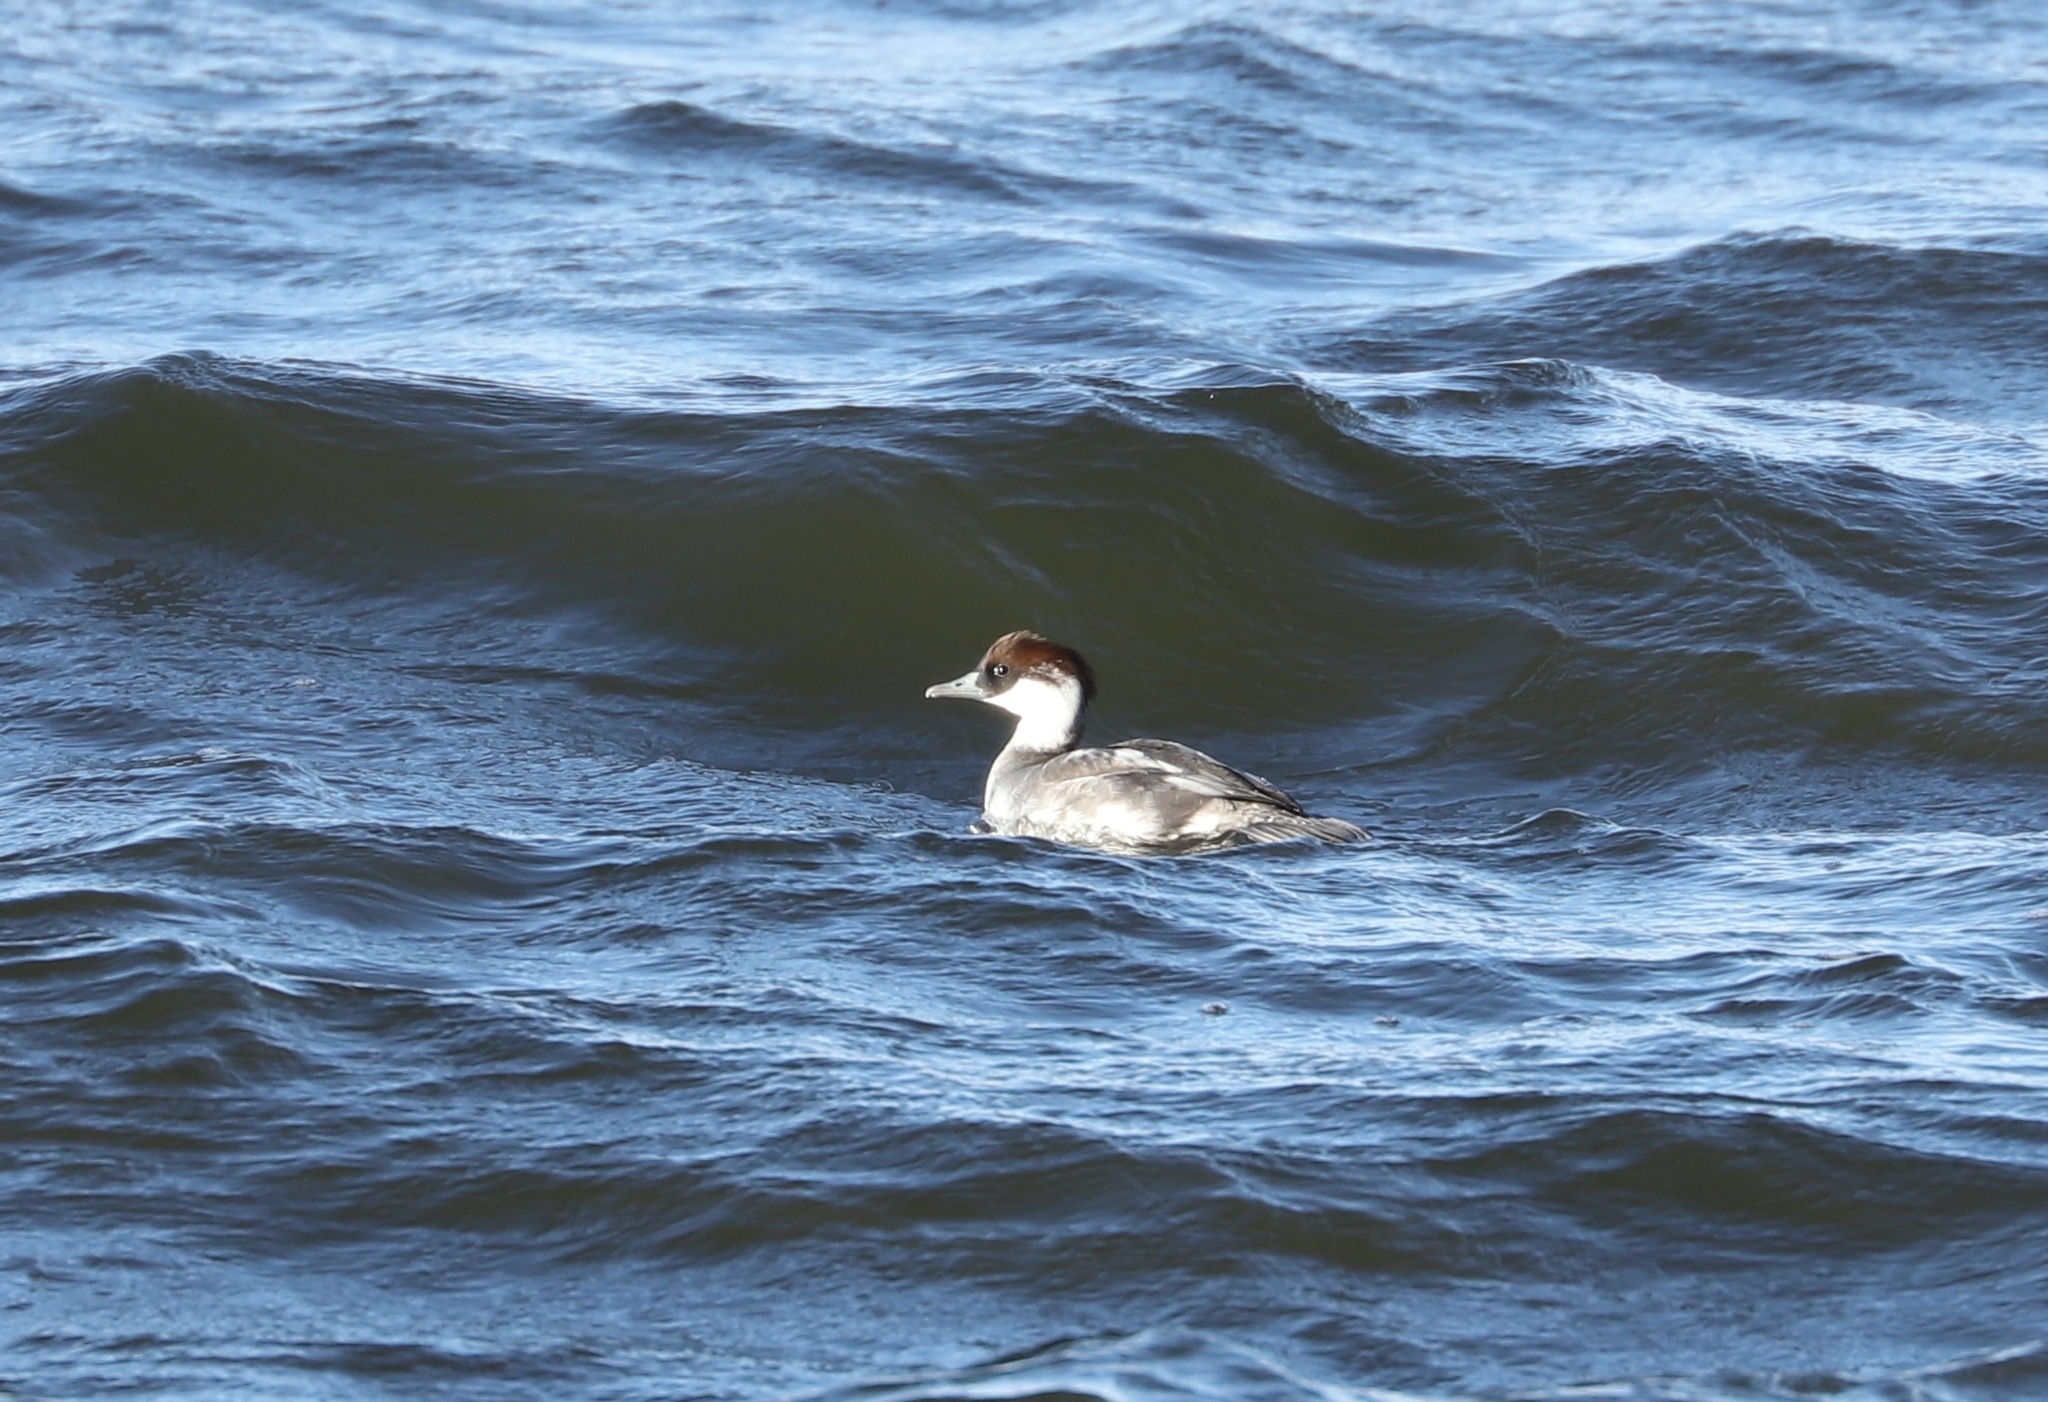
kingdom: Animalia
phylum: Chordata
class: Aves
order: Anseriformes
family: Anatidae
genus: Mergellus
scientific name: Mergellus albellus
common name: Smew
